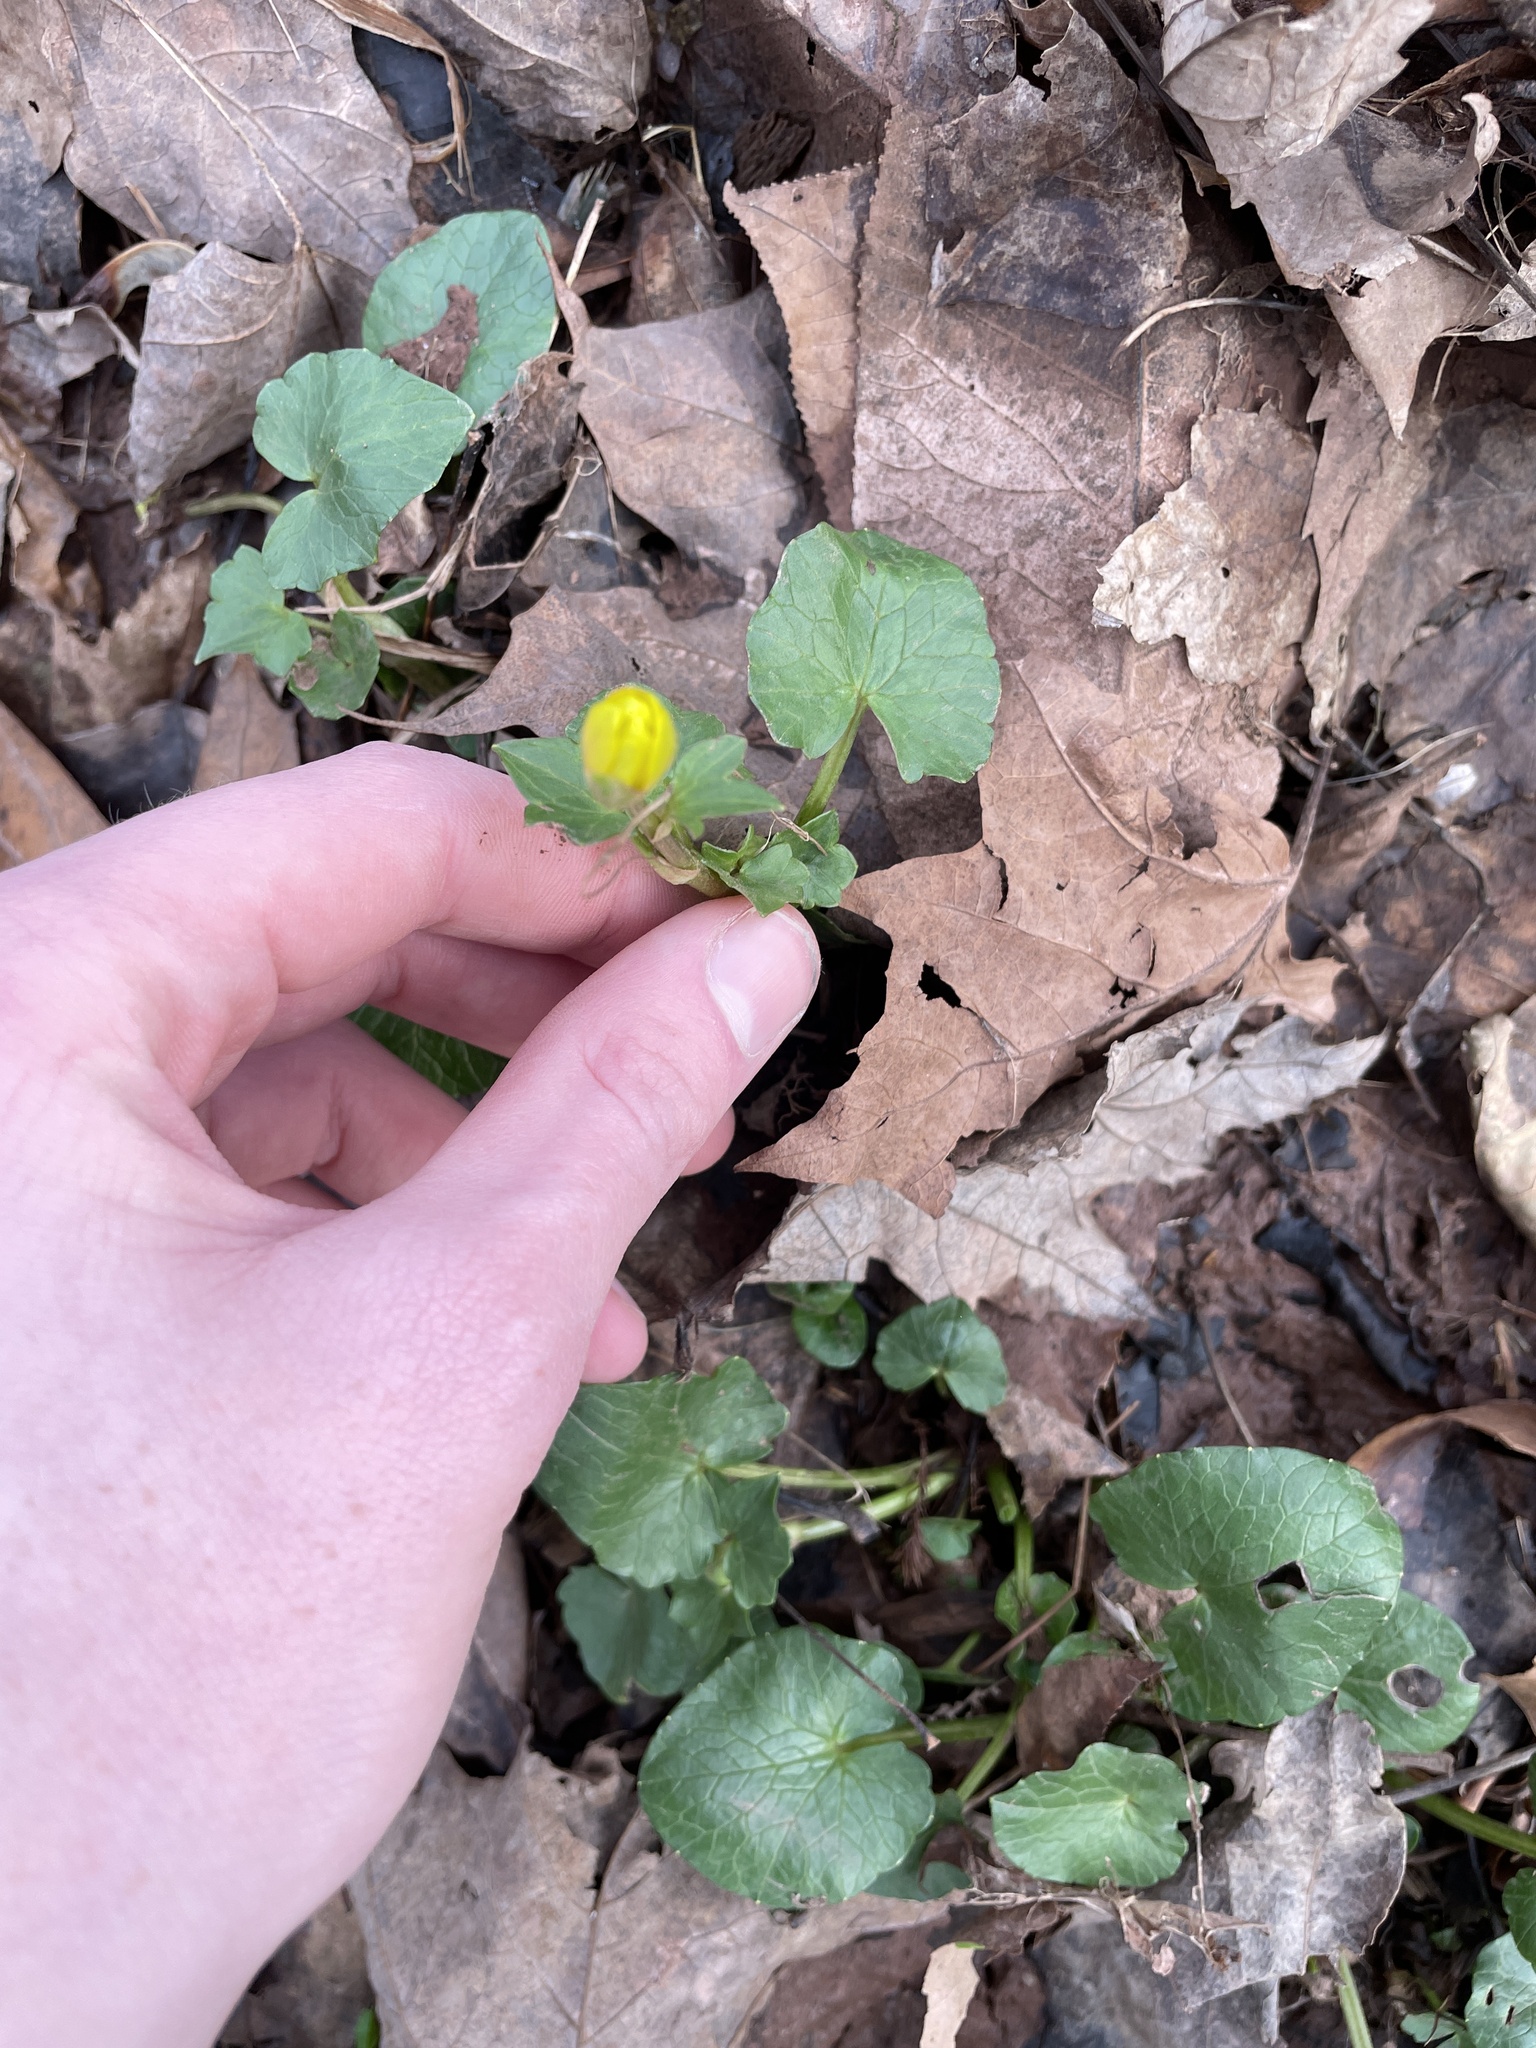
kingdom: Plantae
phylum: Tracheophyta
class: Magnoliopsida
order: Ranunculales
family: Ranunculaceae
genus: Ficaria
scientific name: Ficaria verna
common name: Lesser celandine
